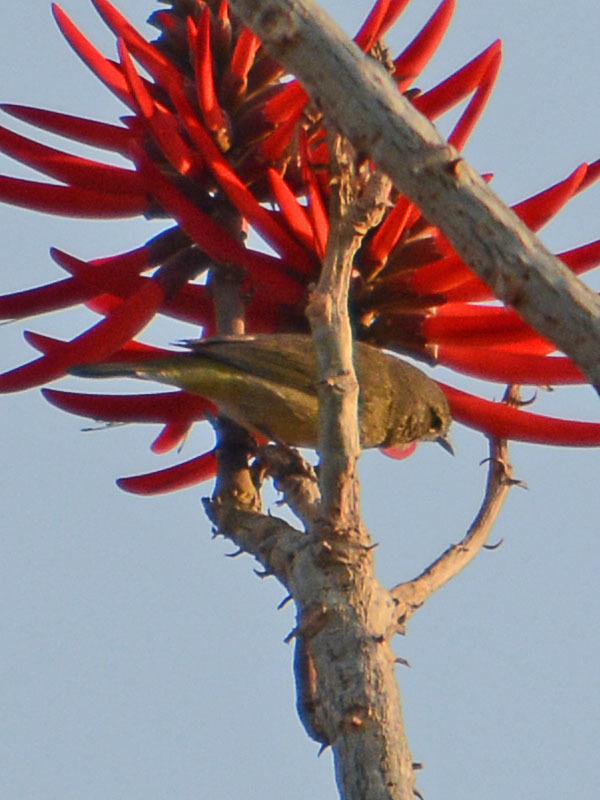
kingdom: Animalia
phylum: Chordata
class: Aves
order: Passeriformes
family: Parulidae
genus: Leiothlypis
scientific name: Leiothlypis celata
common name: Orange-crowned warbler
